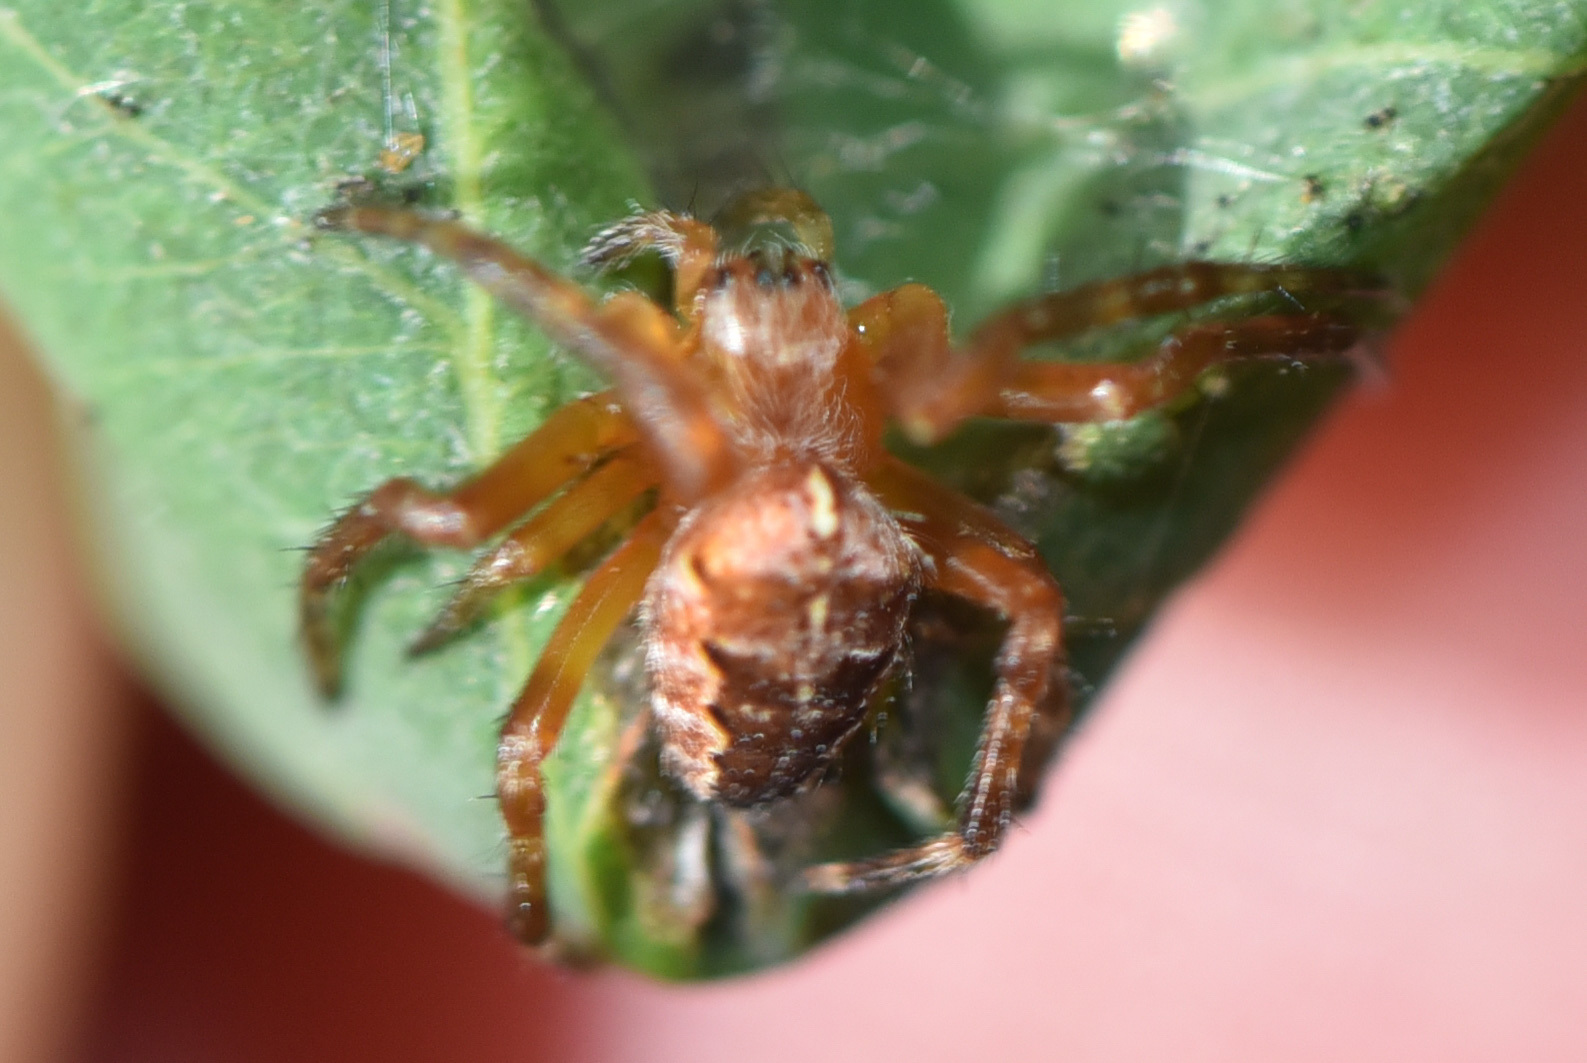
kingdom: Animalia
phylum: Arthropoda
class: Arachnida
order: Araneae
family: Araneidae
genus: Araneus
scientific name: Araneus diadematus
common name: Cross orbweaver
